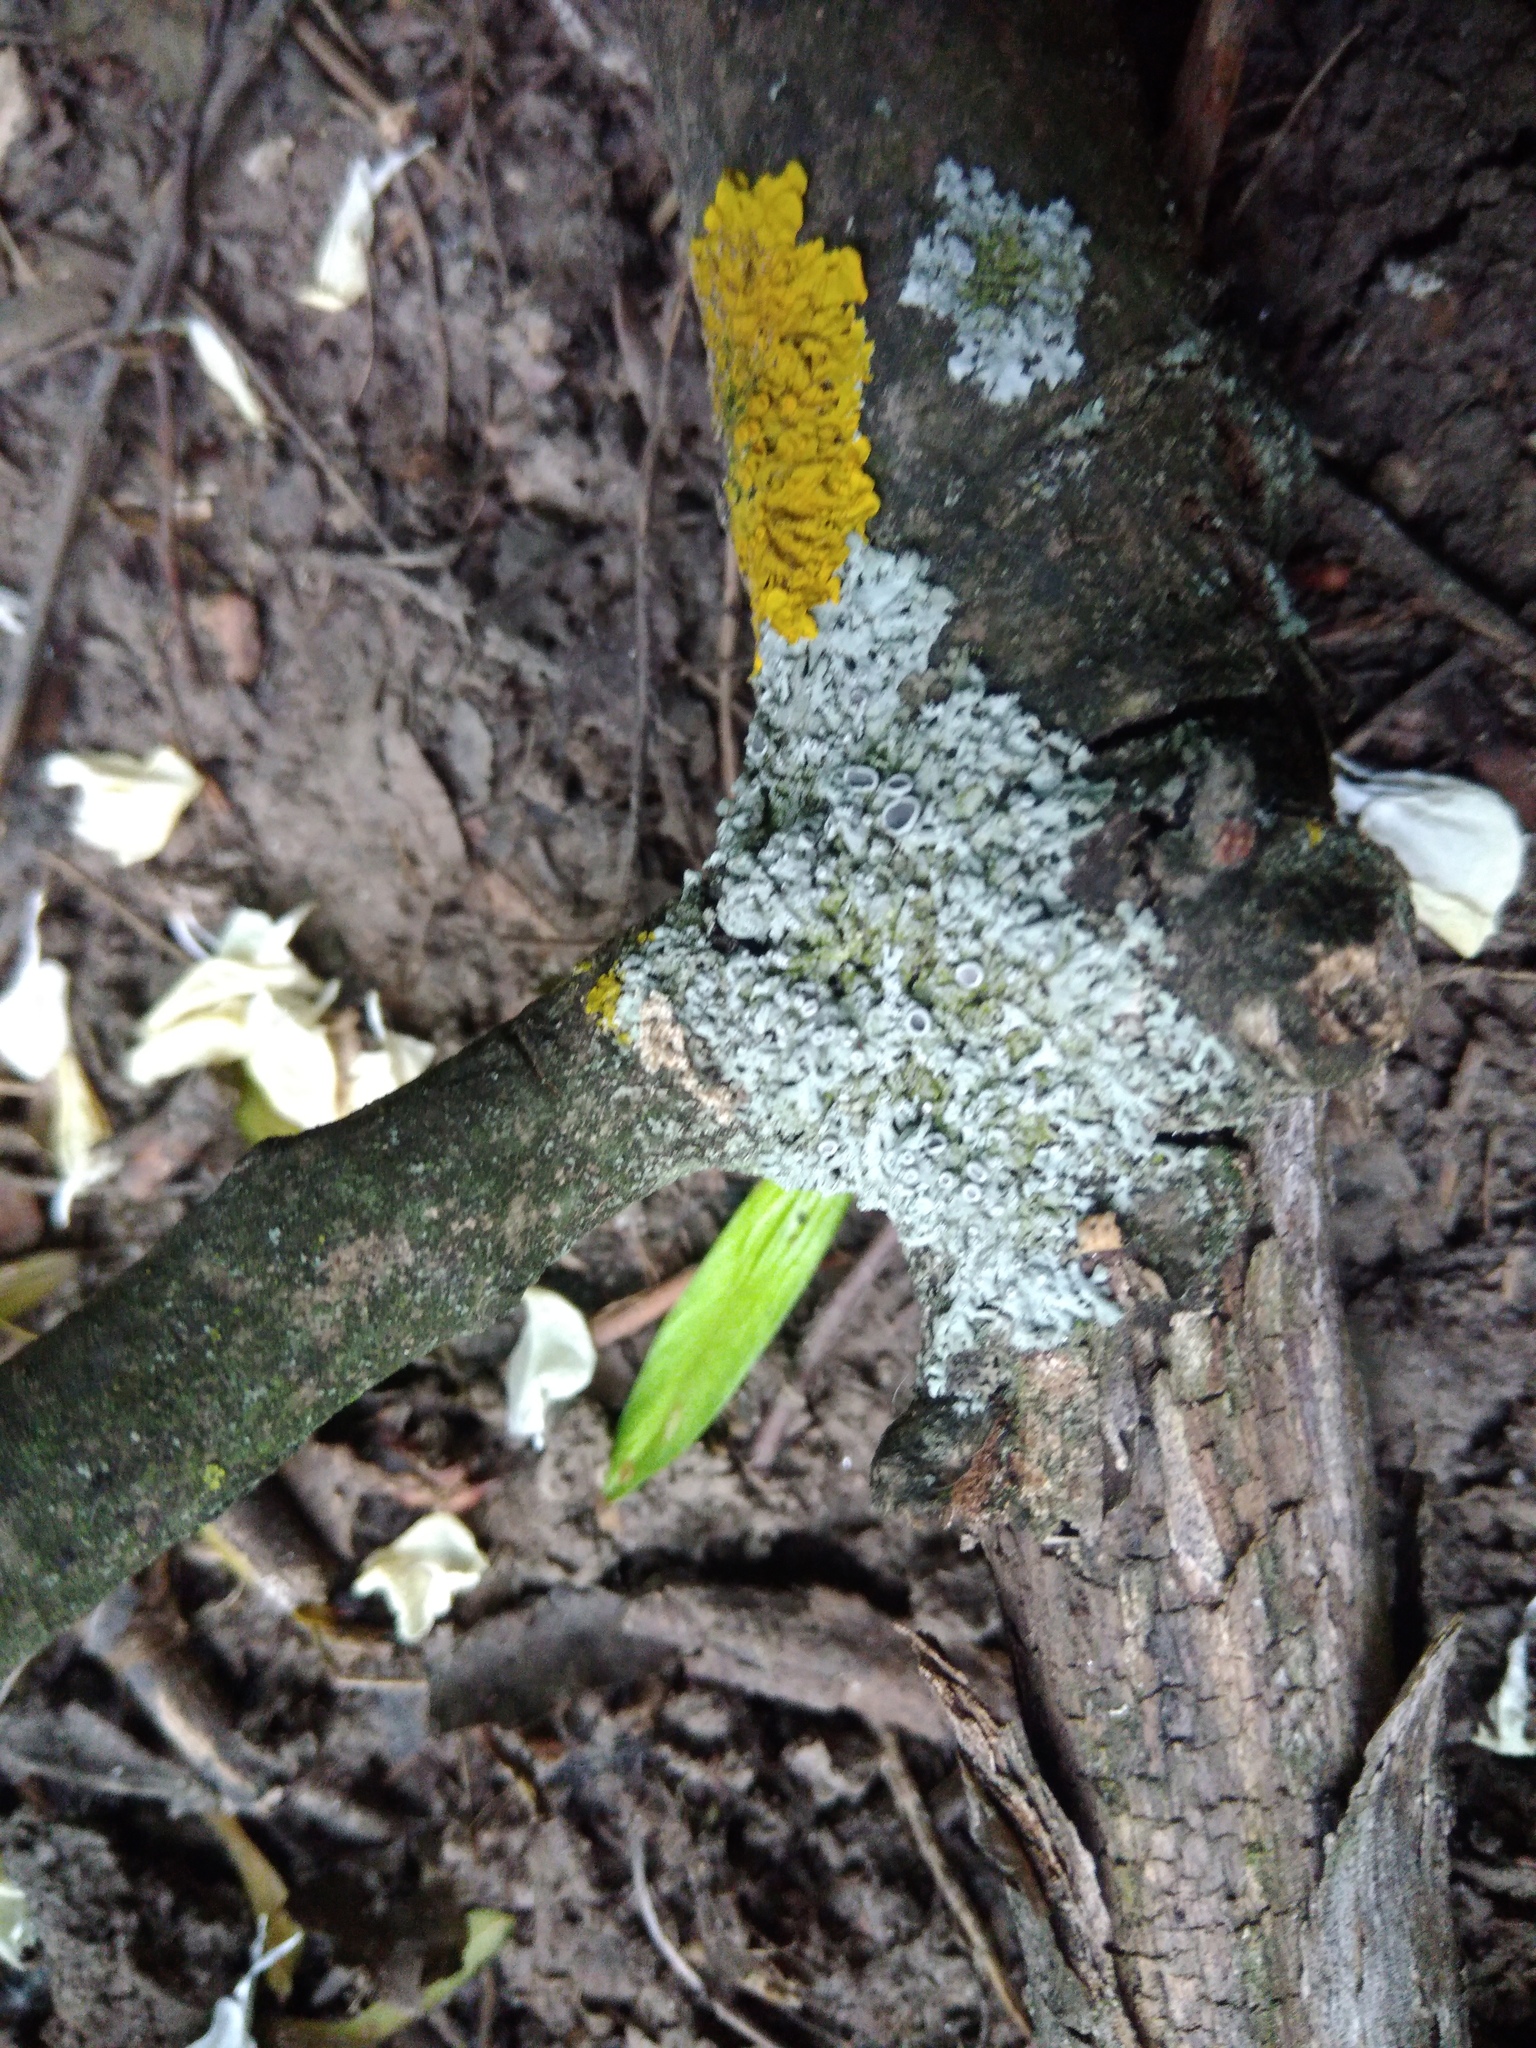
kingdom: Fungi
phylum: Ascomycota
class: Lecanoromycetes
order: Caliciales
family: Physciaceae
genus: Physcia
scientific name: Physcia stellaris
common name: Star rosette lichen
